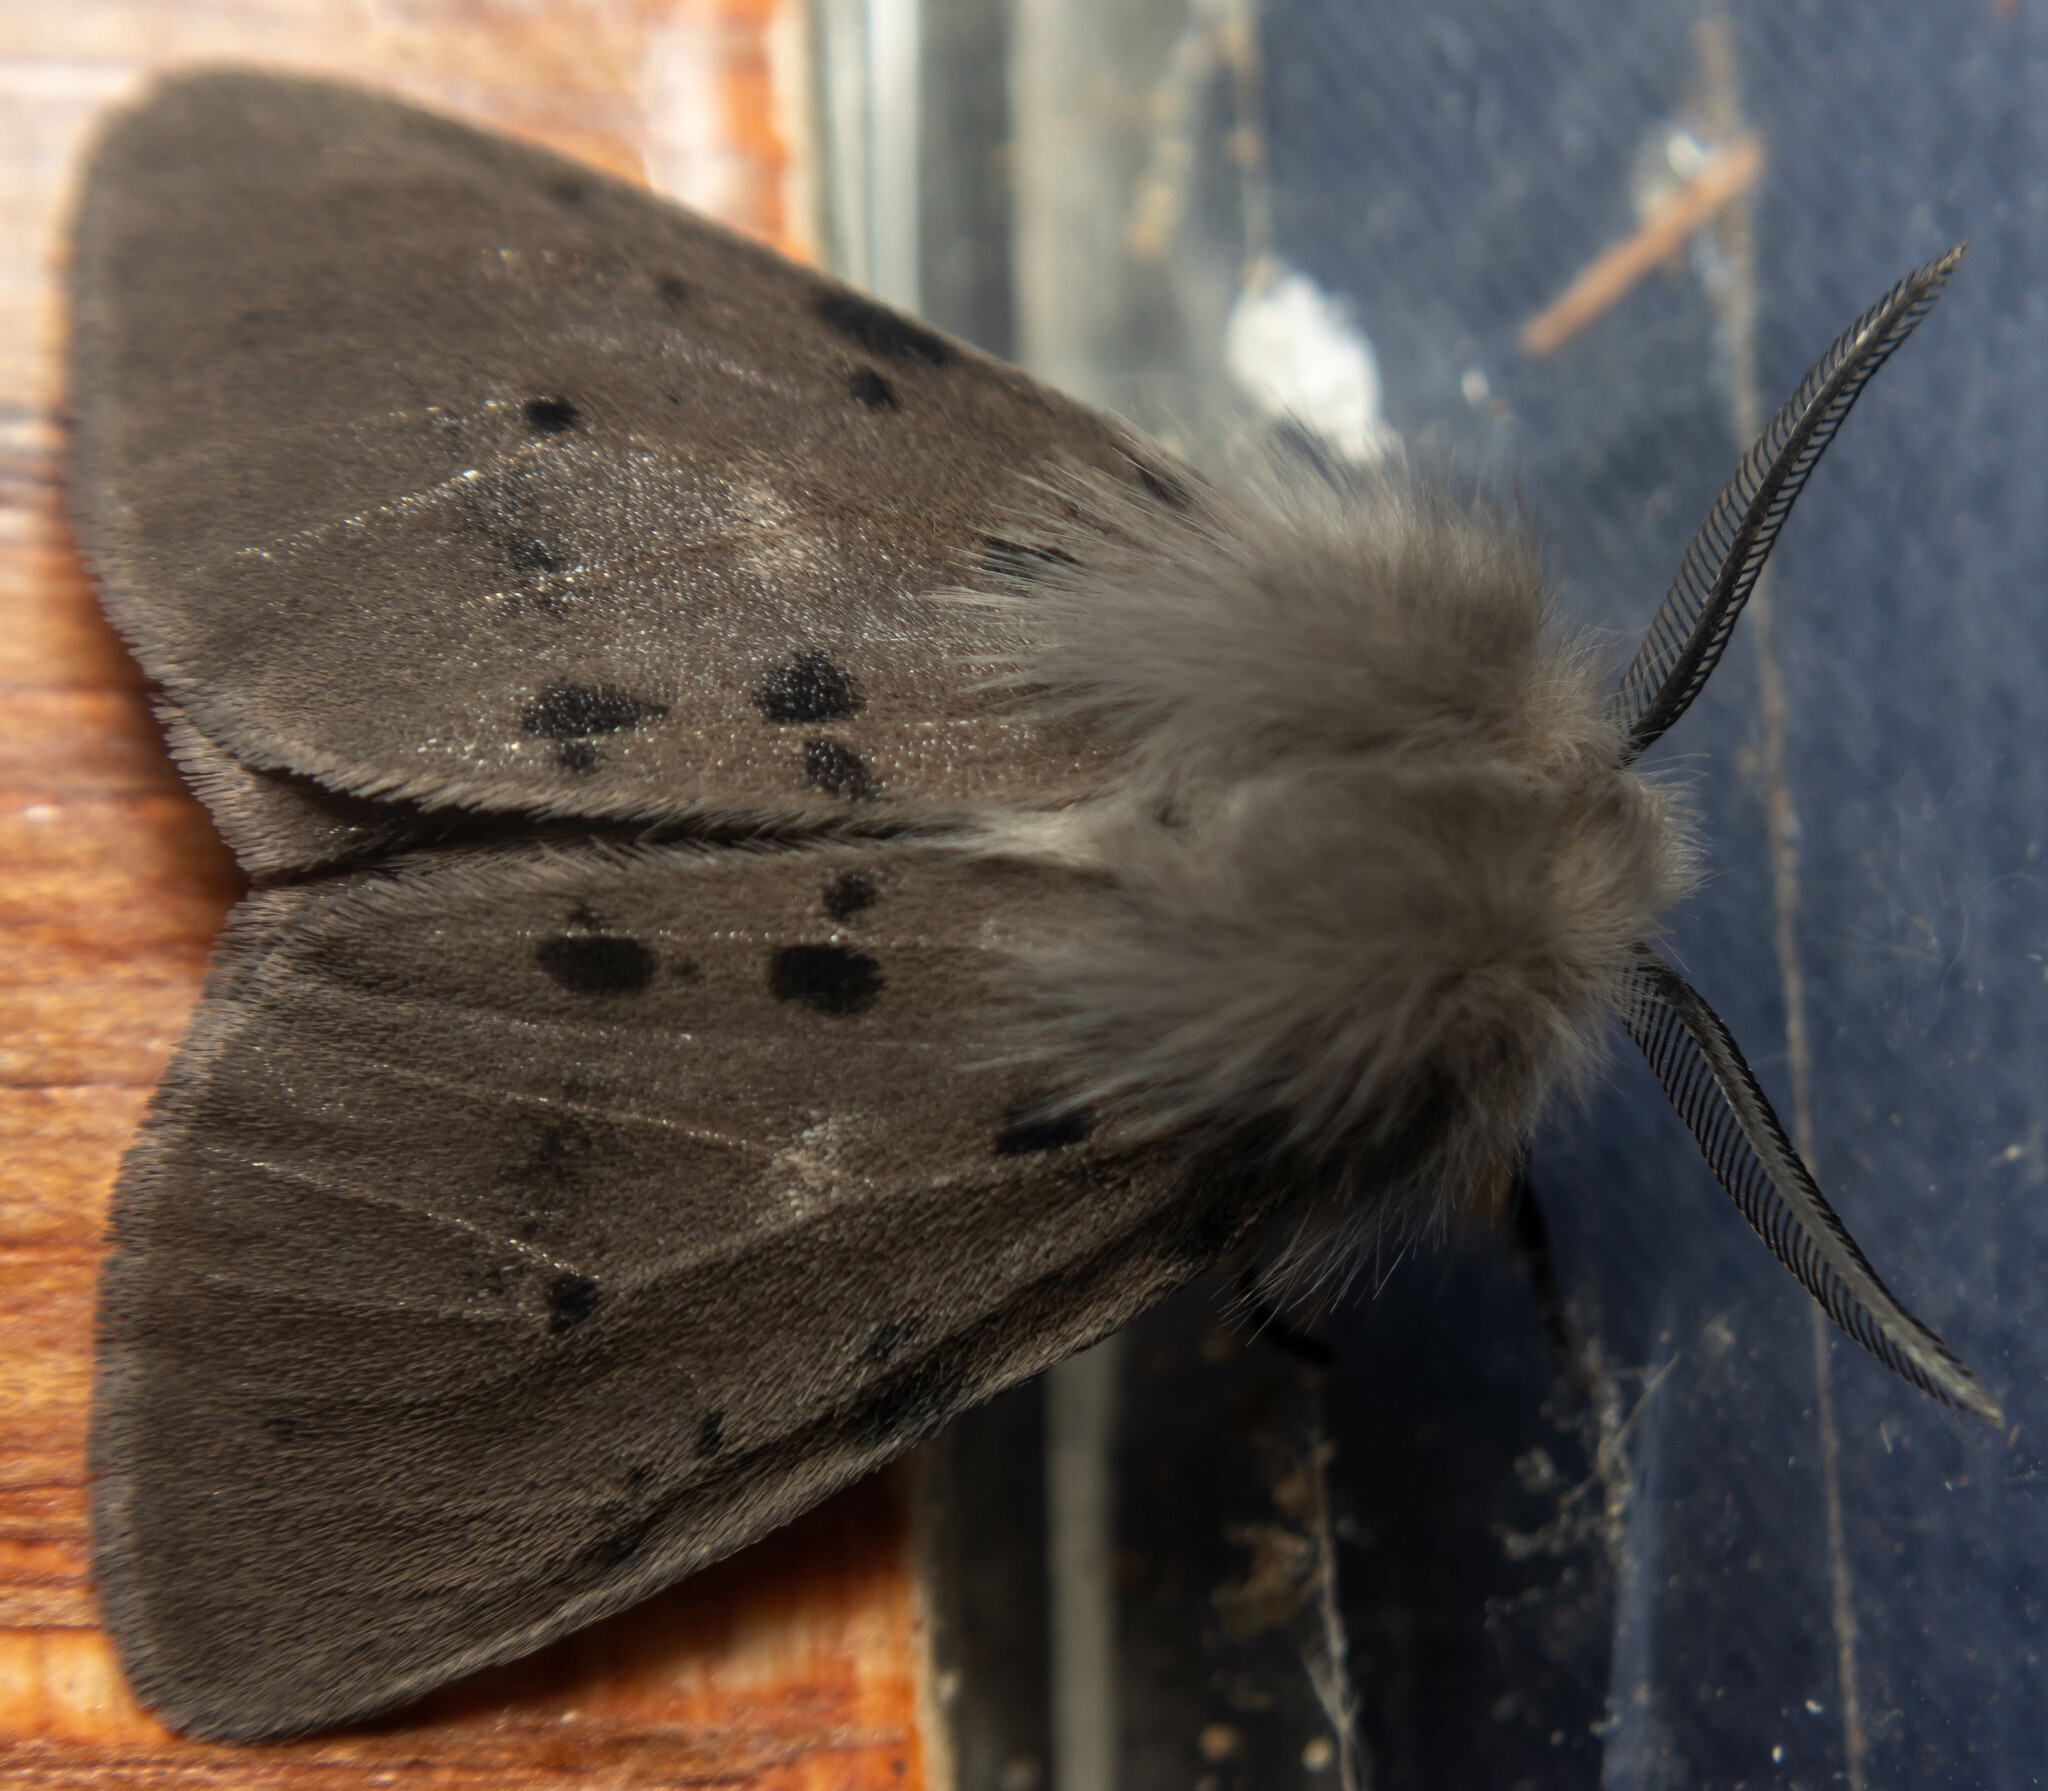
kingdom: Animalia
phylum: Arthropoda
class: Insecta
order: Lepidoptera
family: Erebidae
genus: Diaphora
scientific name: Diaphora mendica
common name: Muslin moth
